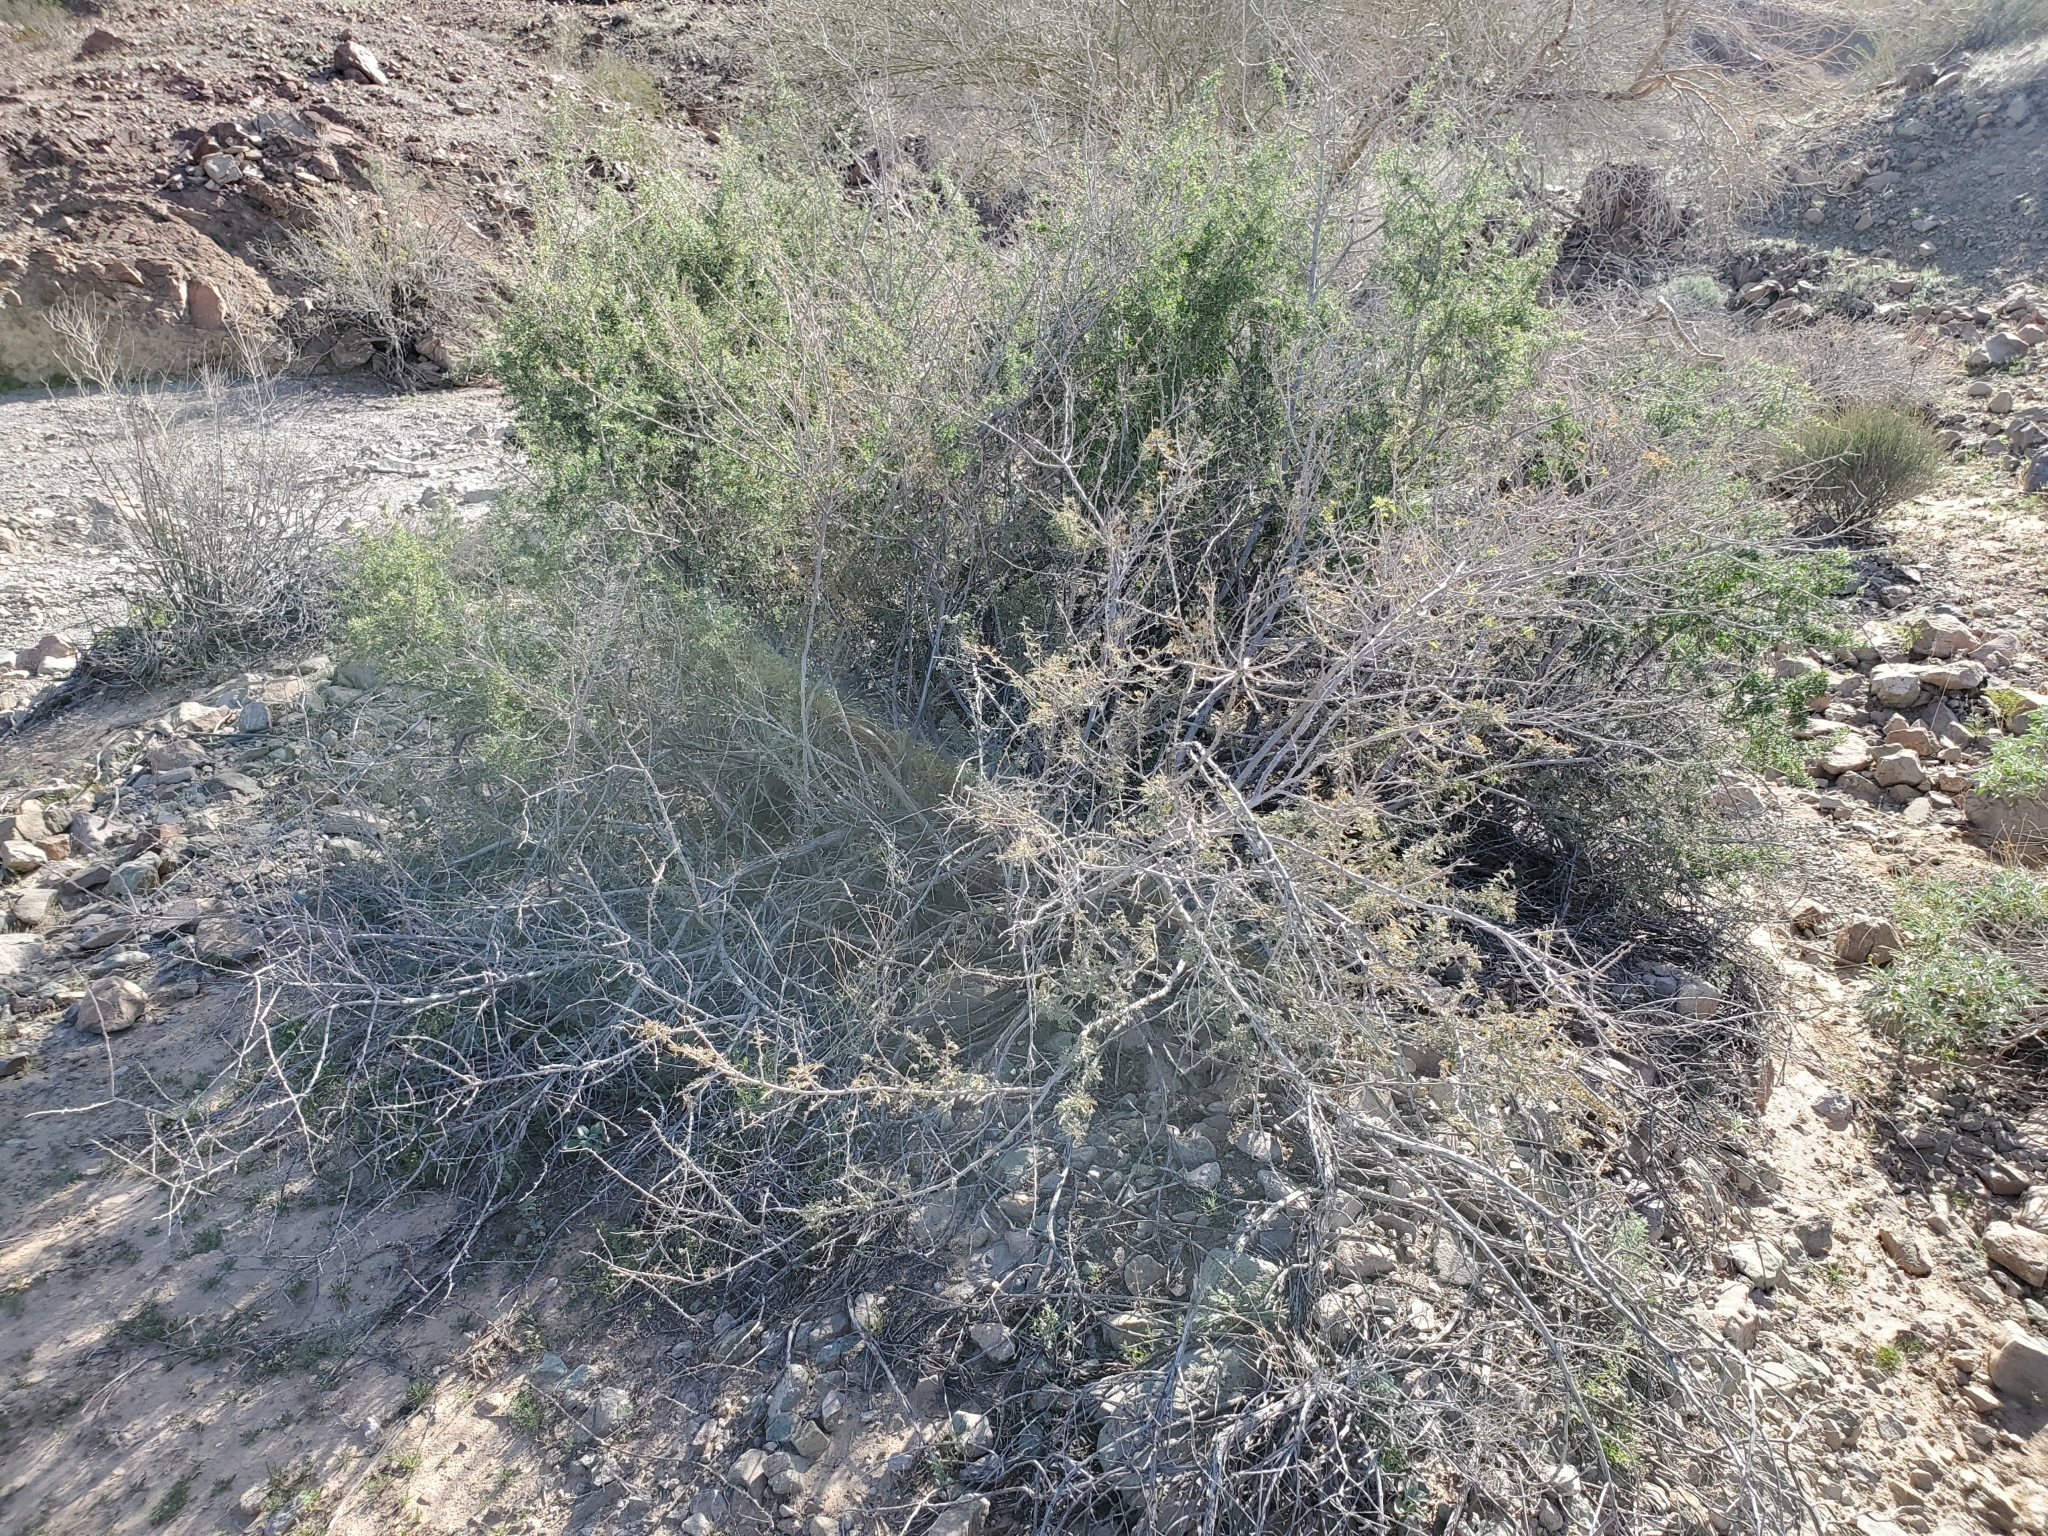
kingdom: Plantae
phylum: Tracheophyta
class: Magnoliopsida
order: Fabales
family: Fabaceae
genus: Senegalia
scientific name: Senegalia greggii
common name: Texas-mimosa
